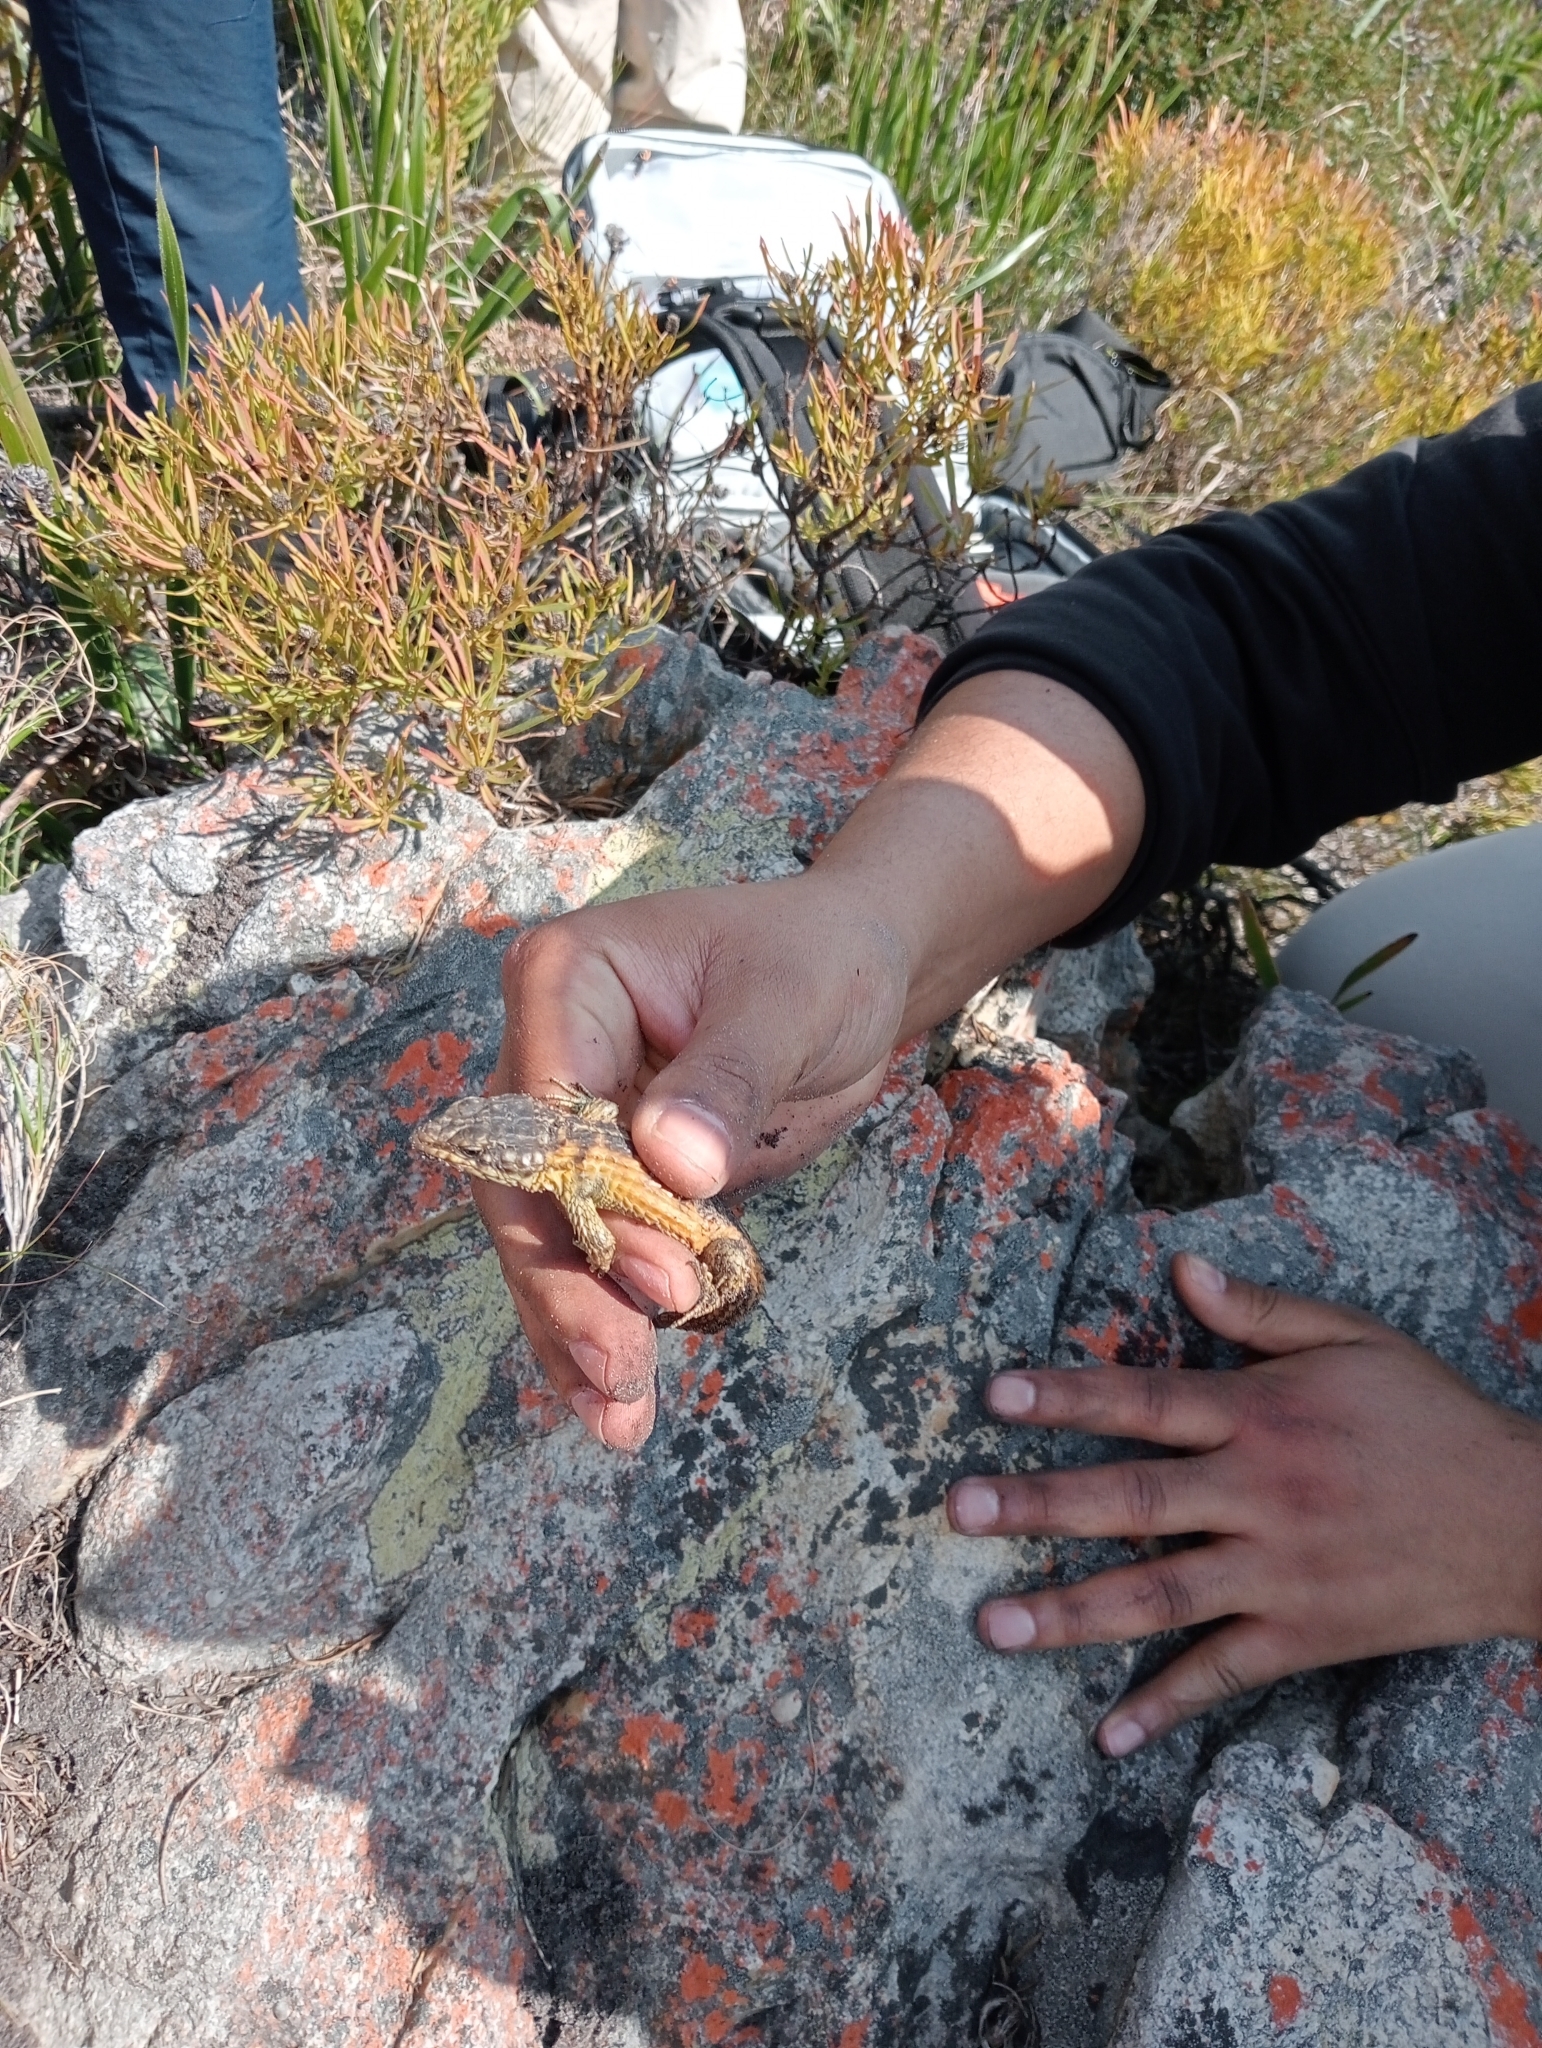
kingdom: Animalia
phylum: Chordata
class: Squamata
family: Cordylidae
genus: Cordylus
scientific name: Cordylus cordylus
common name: Cape girdled lizard
